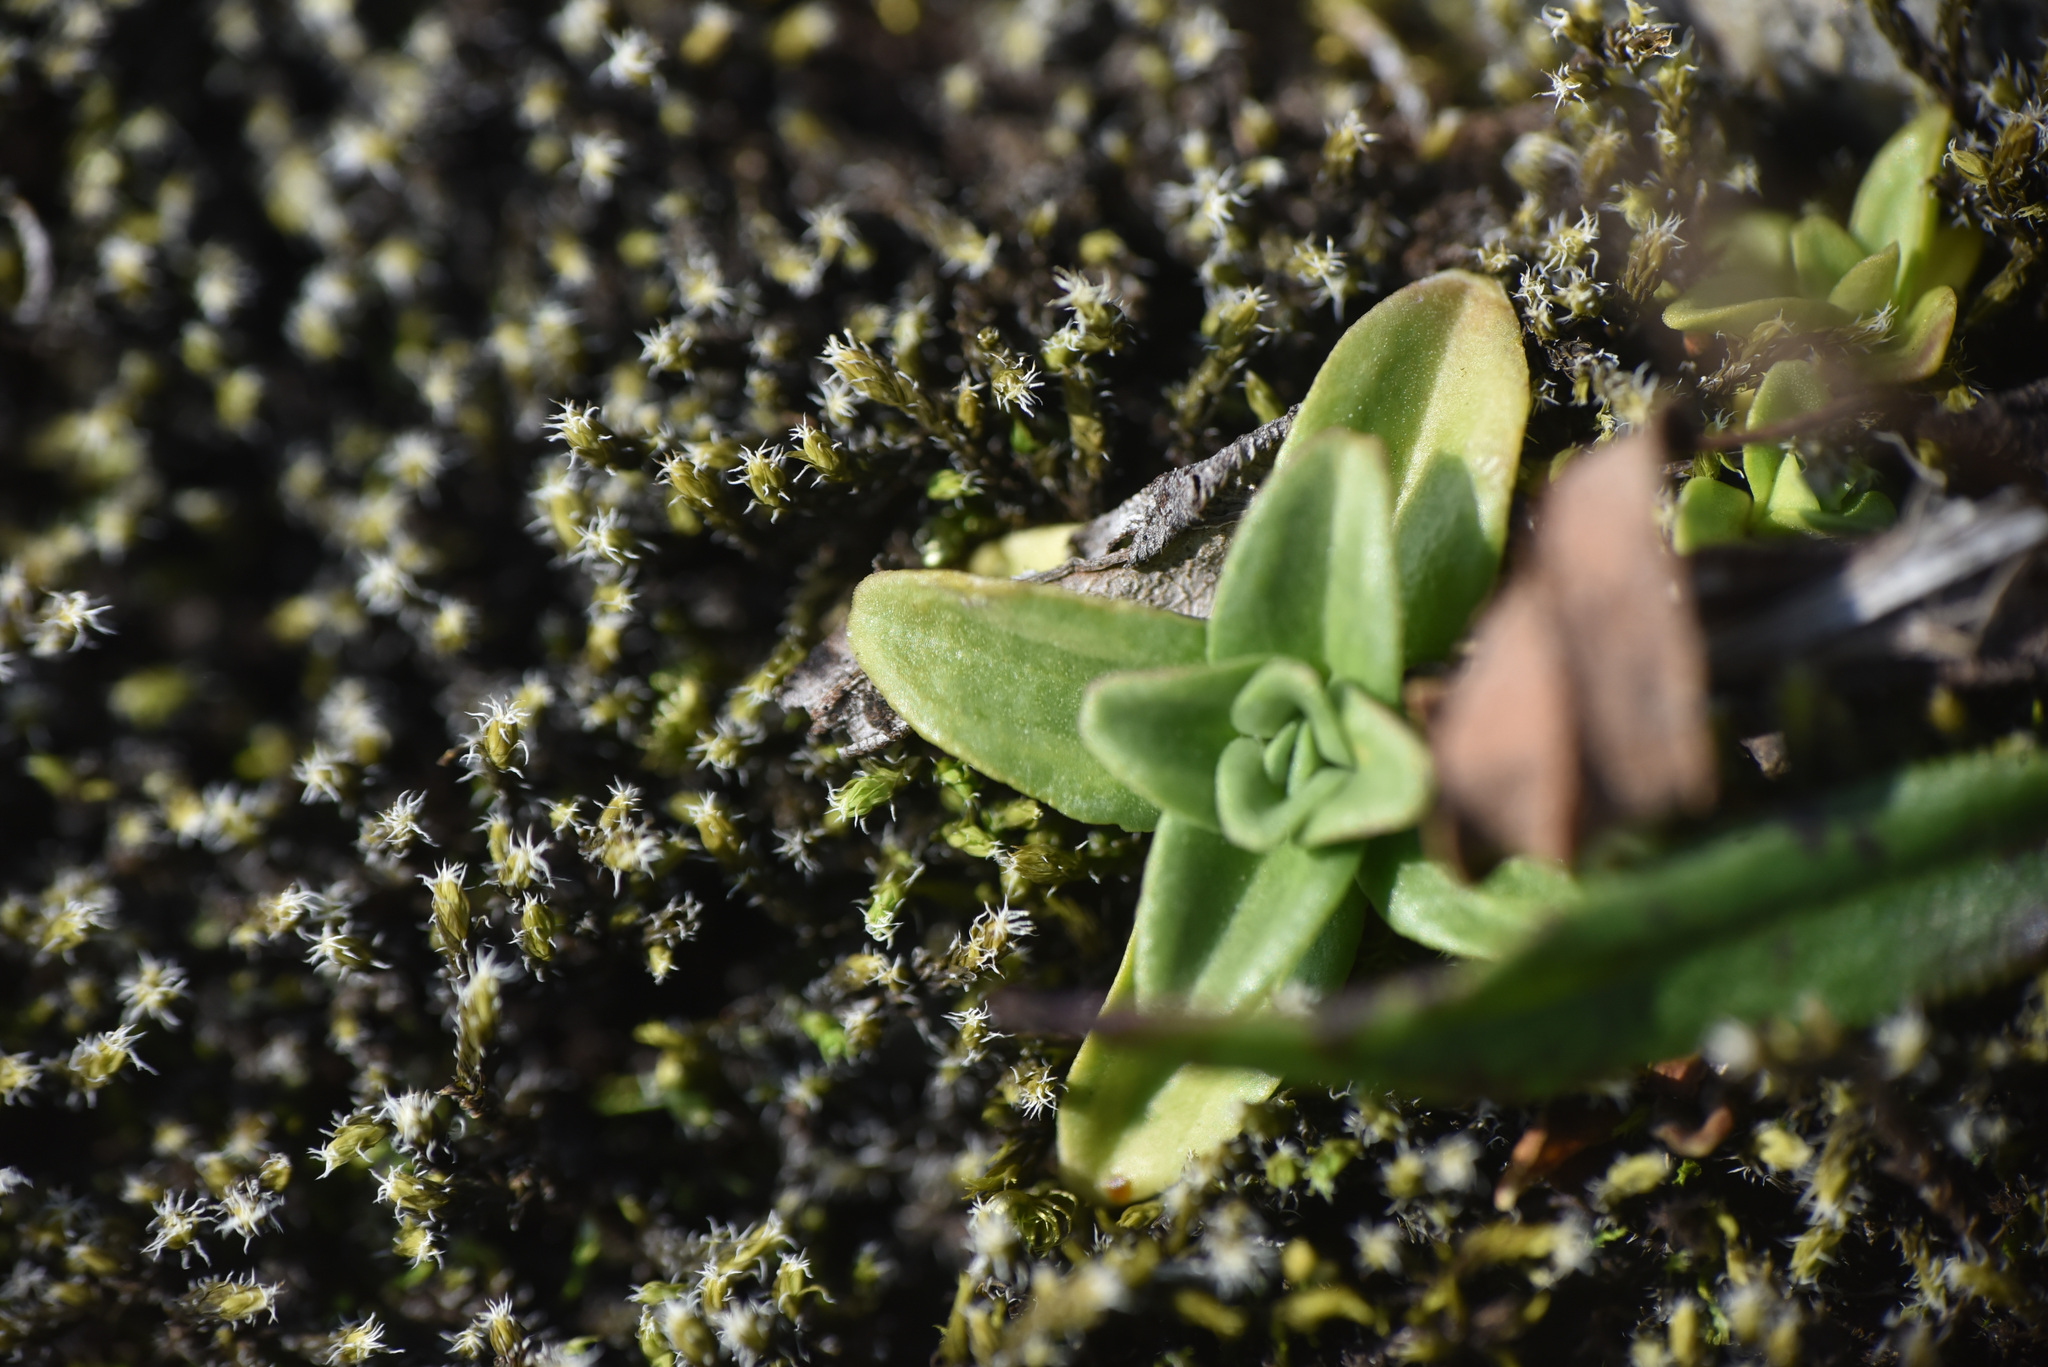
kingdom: Plantae
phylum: Tracheophyta
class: Magnoliopsida
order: Gentianales
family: Gentianaceae
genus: Gentiana
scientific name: Gentiana glauca
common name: Alpine gentian
